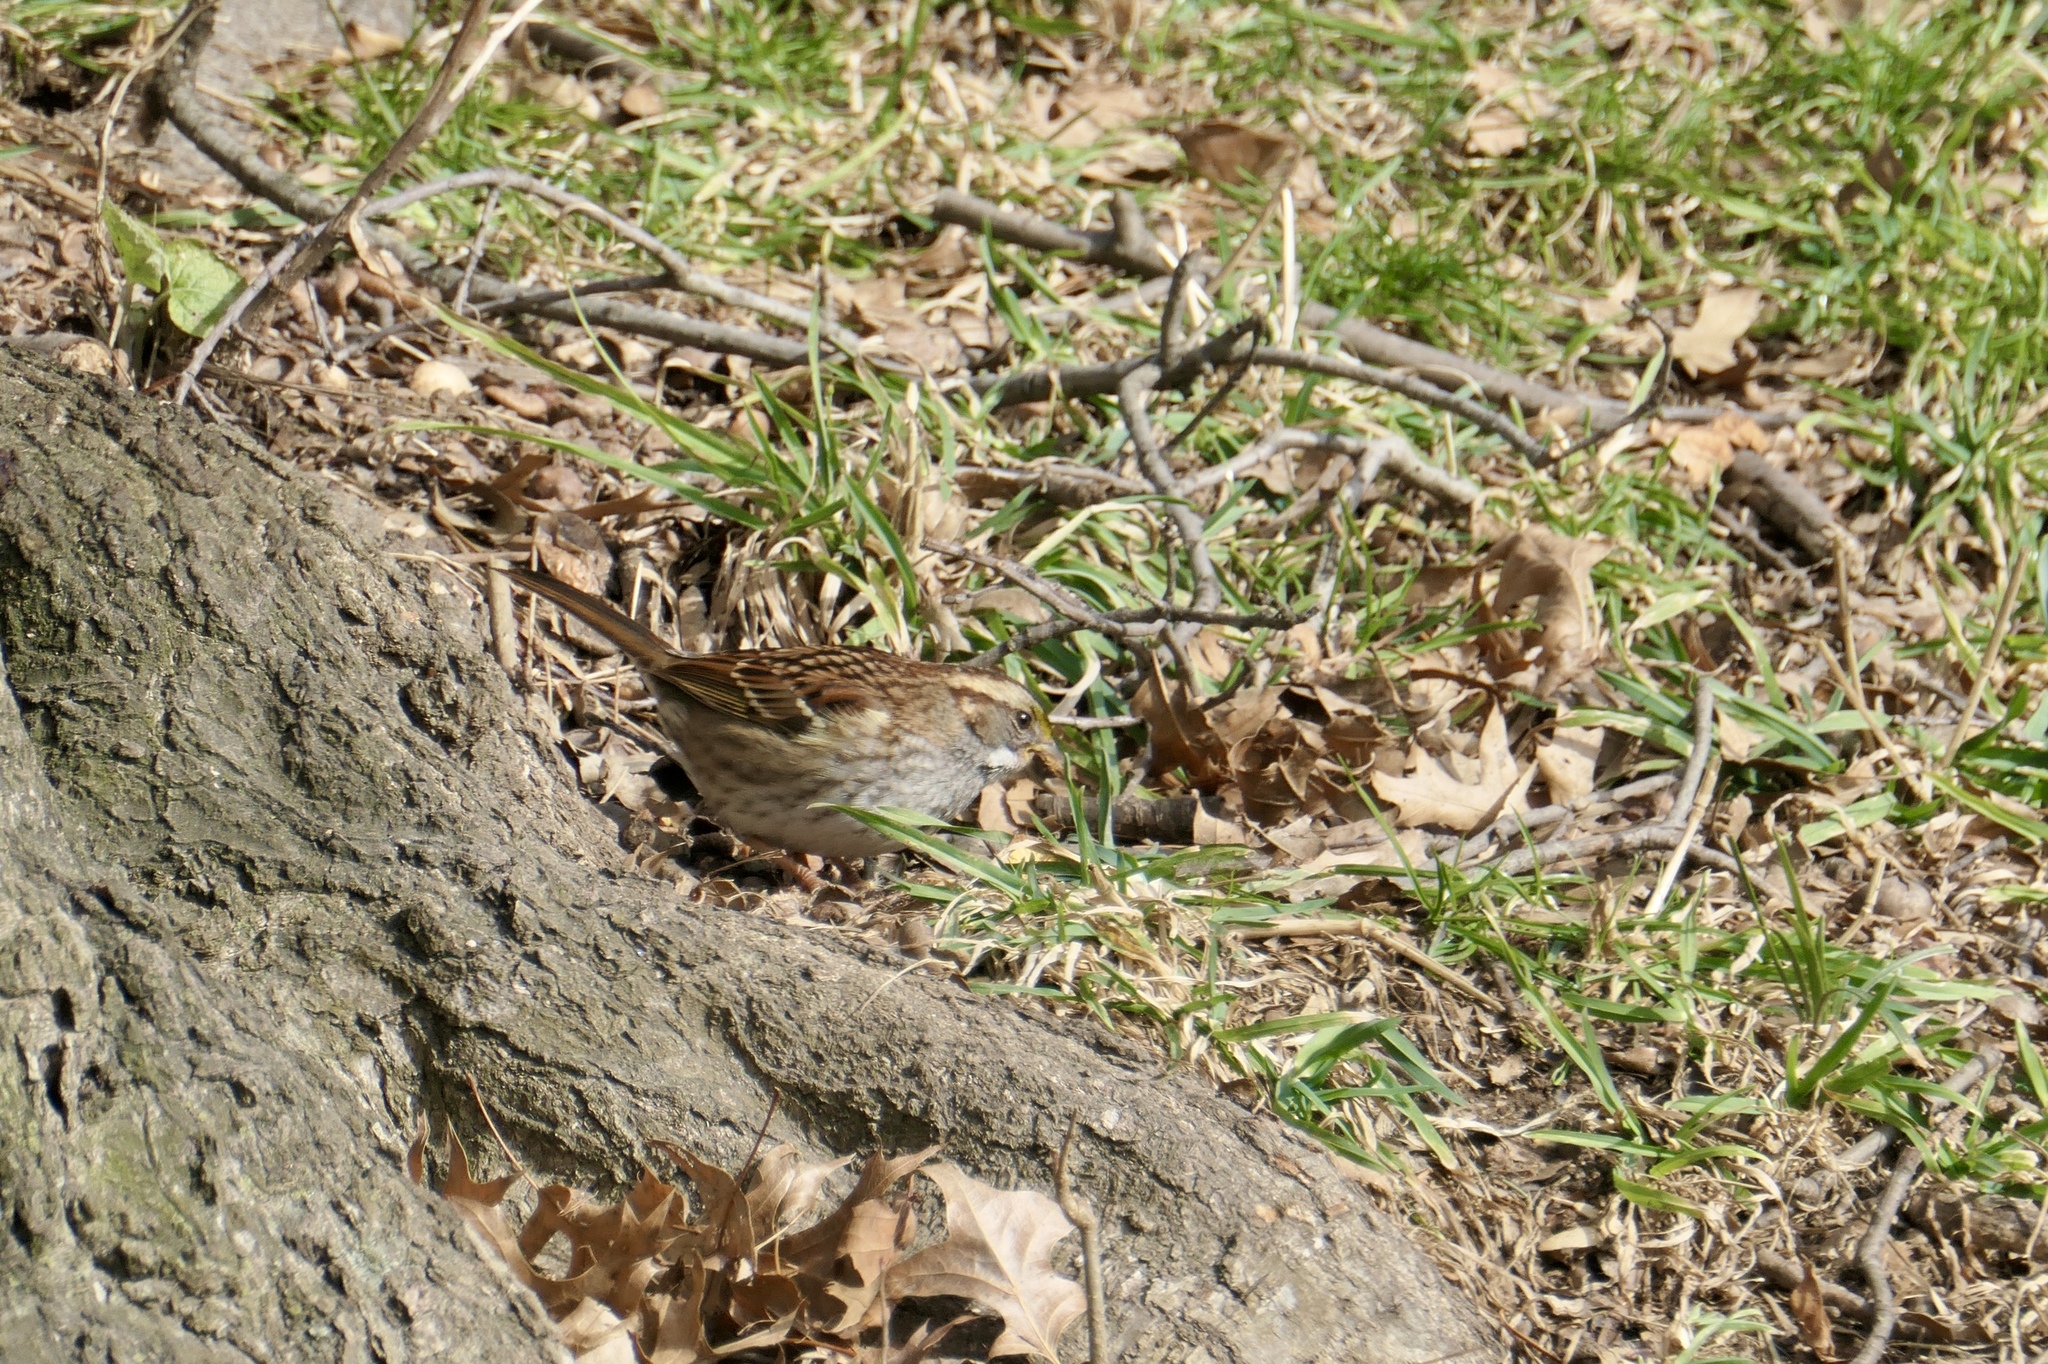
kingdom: Animalia
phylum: Chordata
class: Aves
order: Passeriformes
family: Passerellidae
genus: Zonotrichia
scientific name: Zonotrichia albicollis
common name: White-throated sparrow
